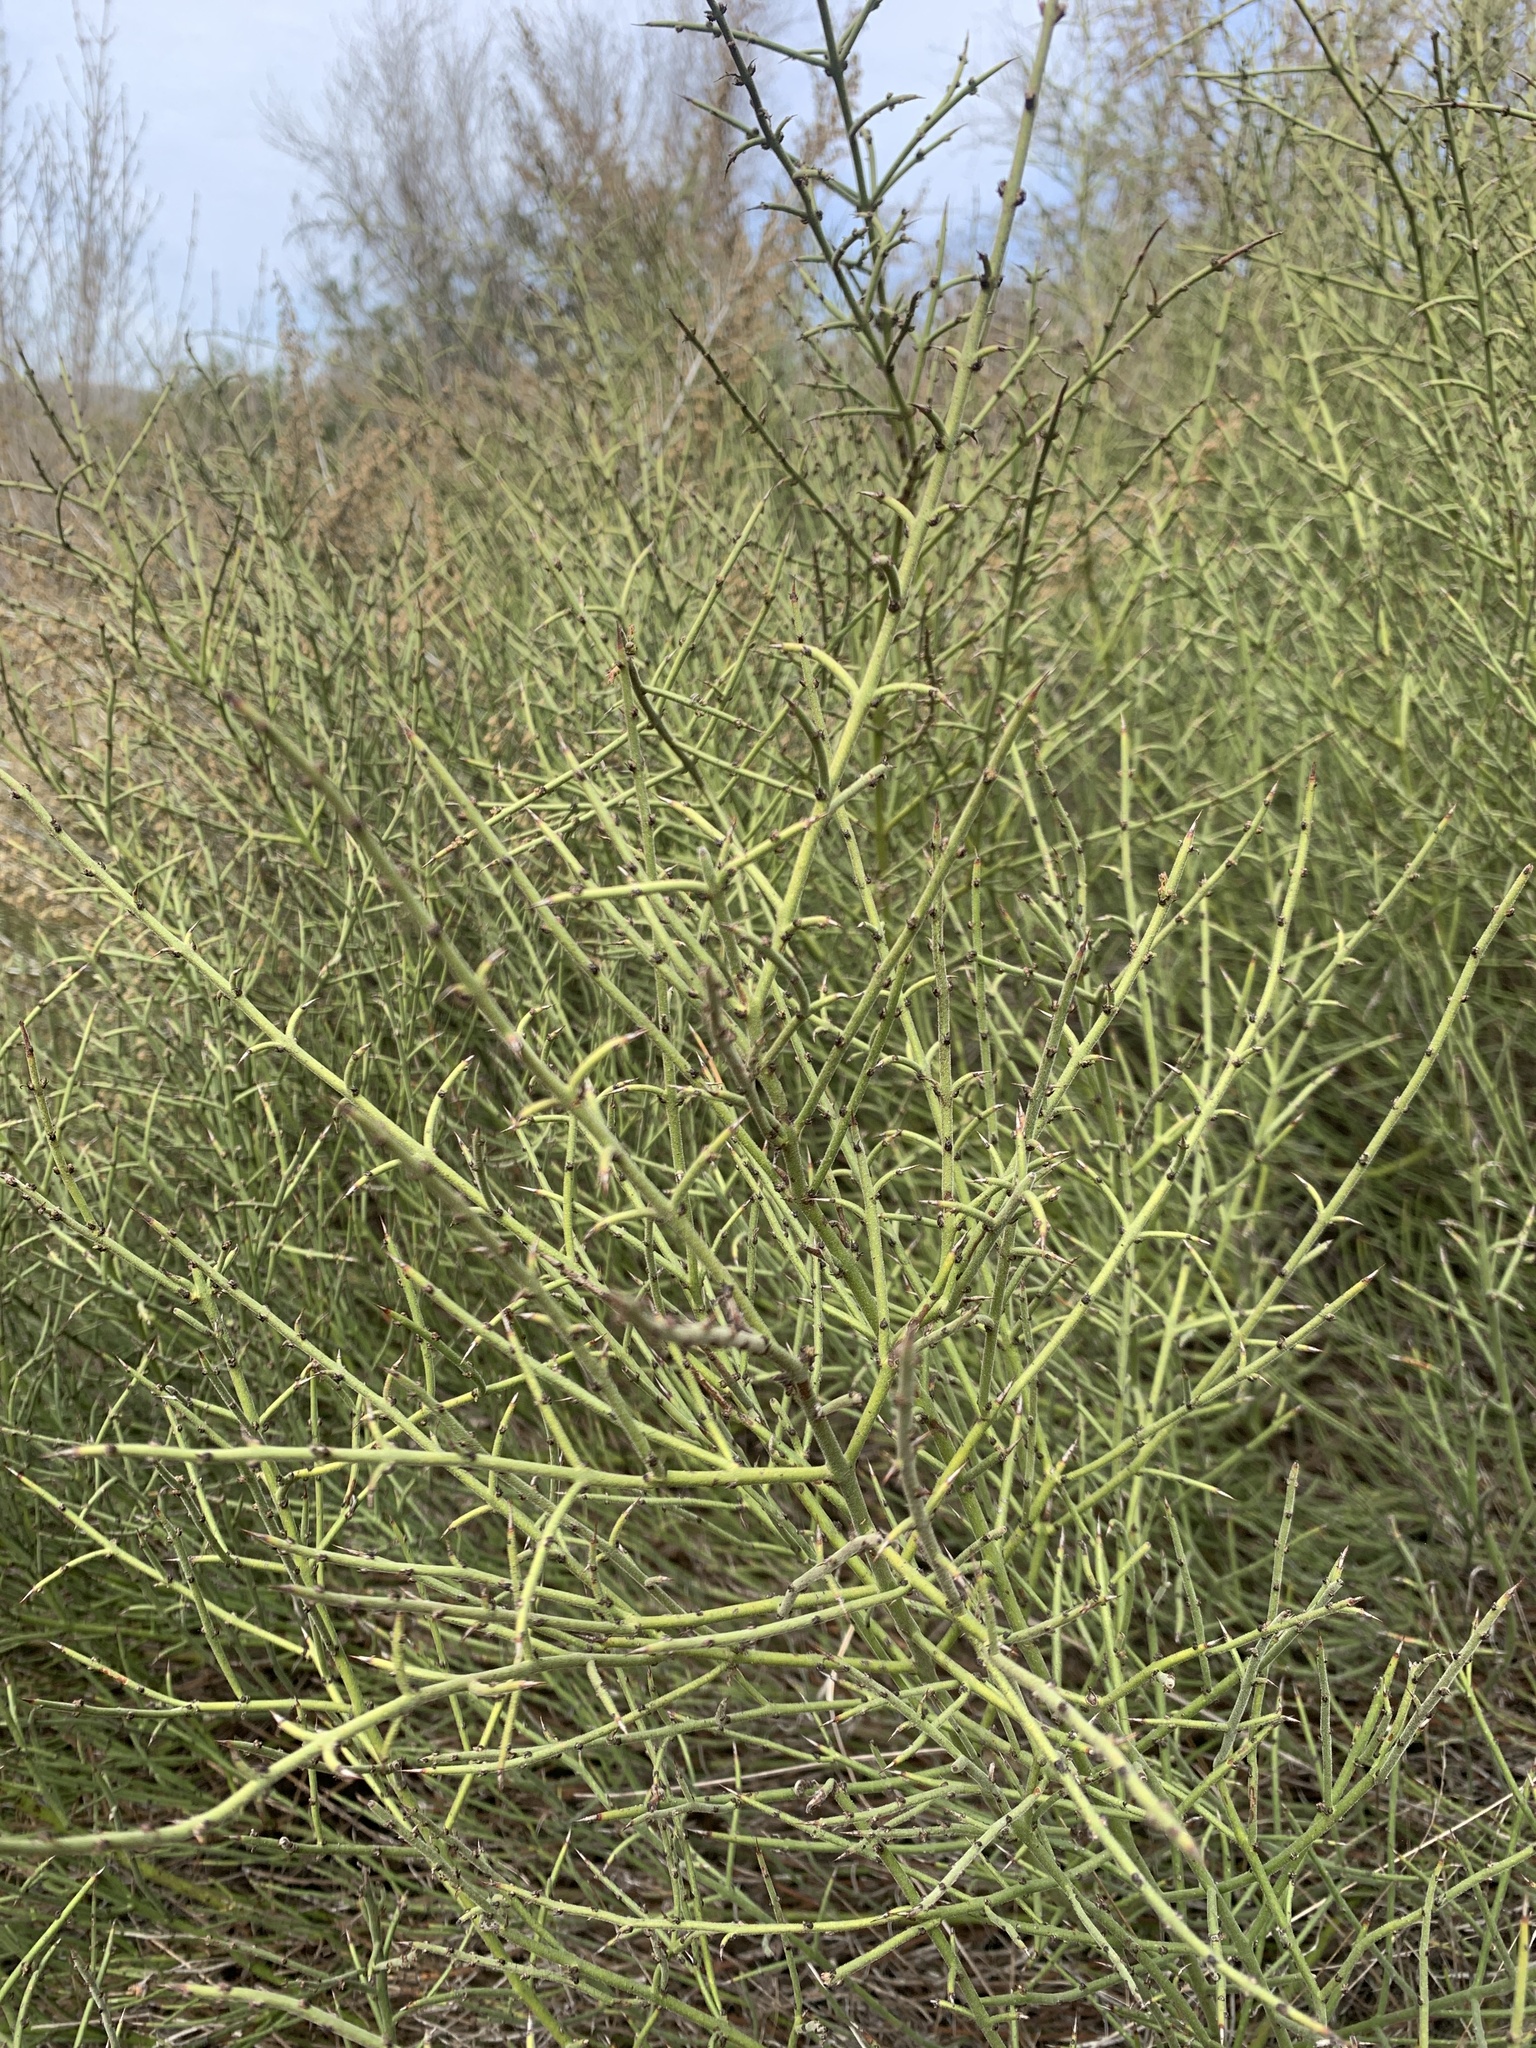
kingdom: Plantae
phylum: Tracheophyta
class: Magnoliopsida
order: Rosales
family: Rhamnaceae
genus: Adolphia
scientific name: Adolphia californica
